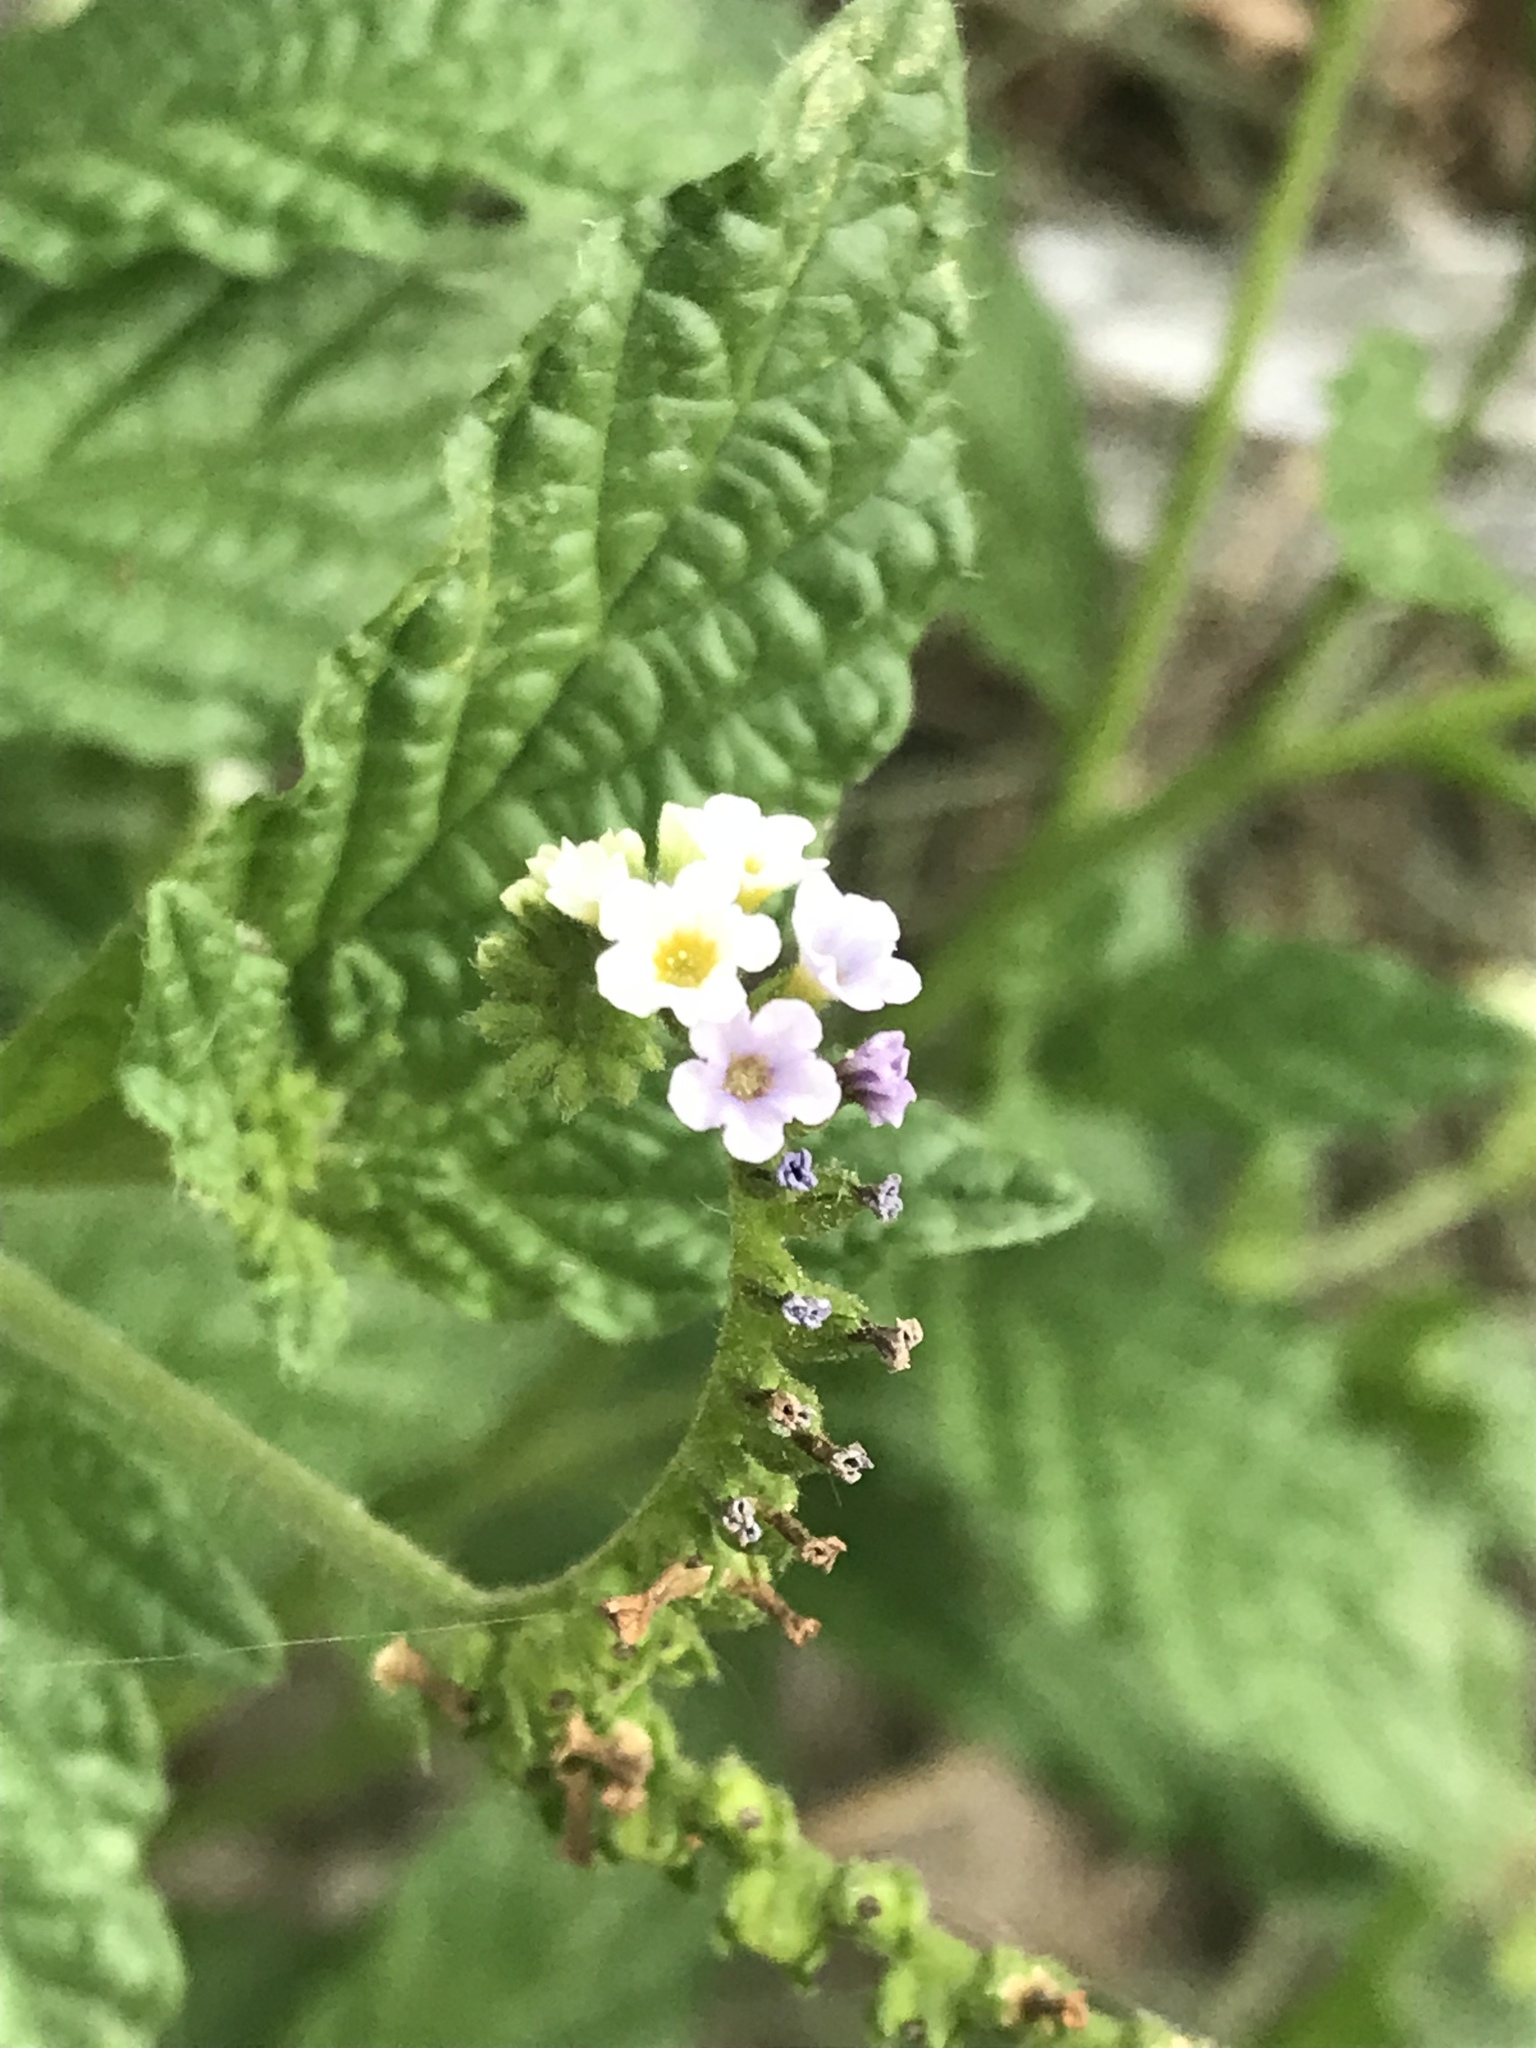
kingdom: Plantae
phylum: Tracheophyta
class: Magnoliopsida
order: Boraginales
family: Heliotropiaceae
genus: Heliotropium
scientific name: Heliotropium angiospermum
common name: Eye bright
